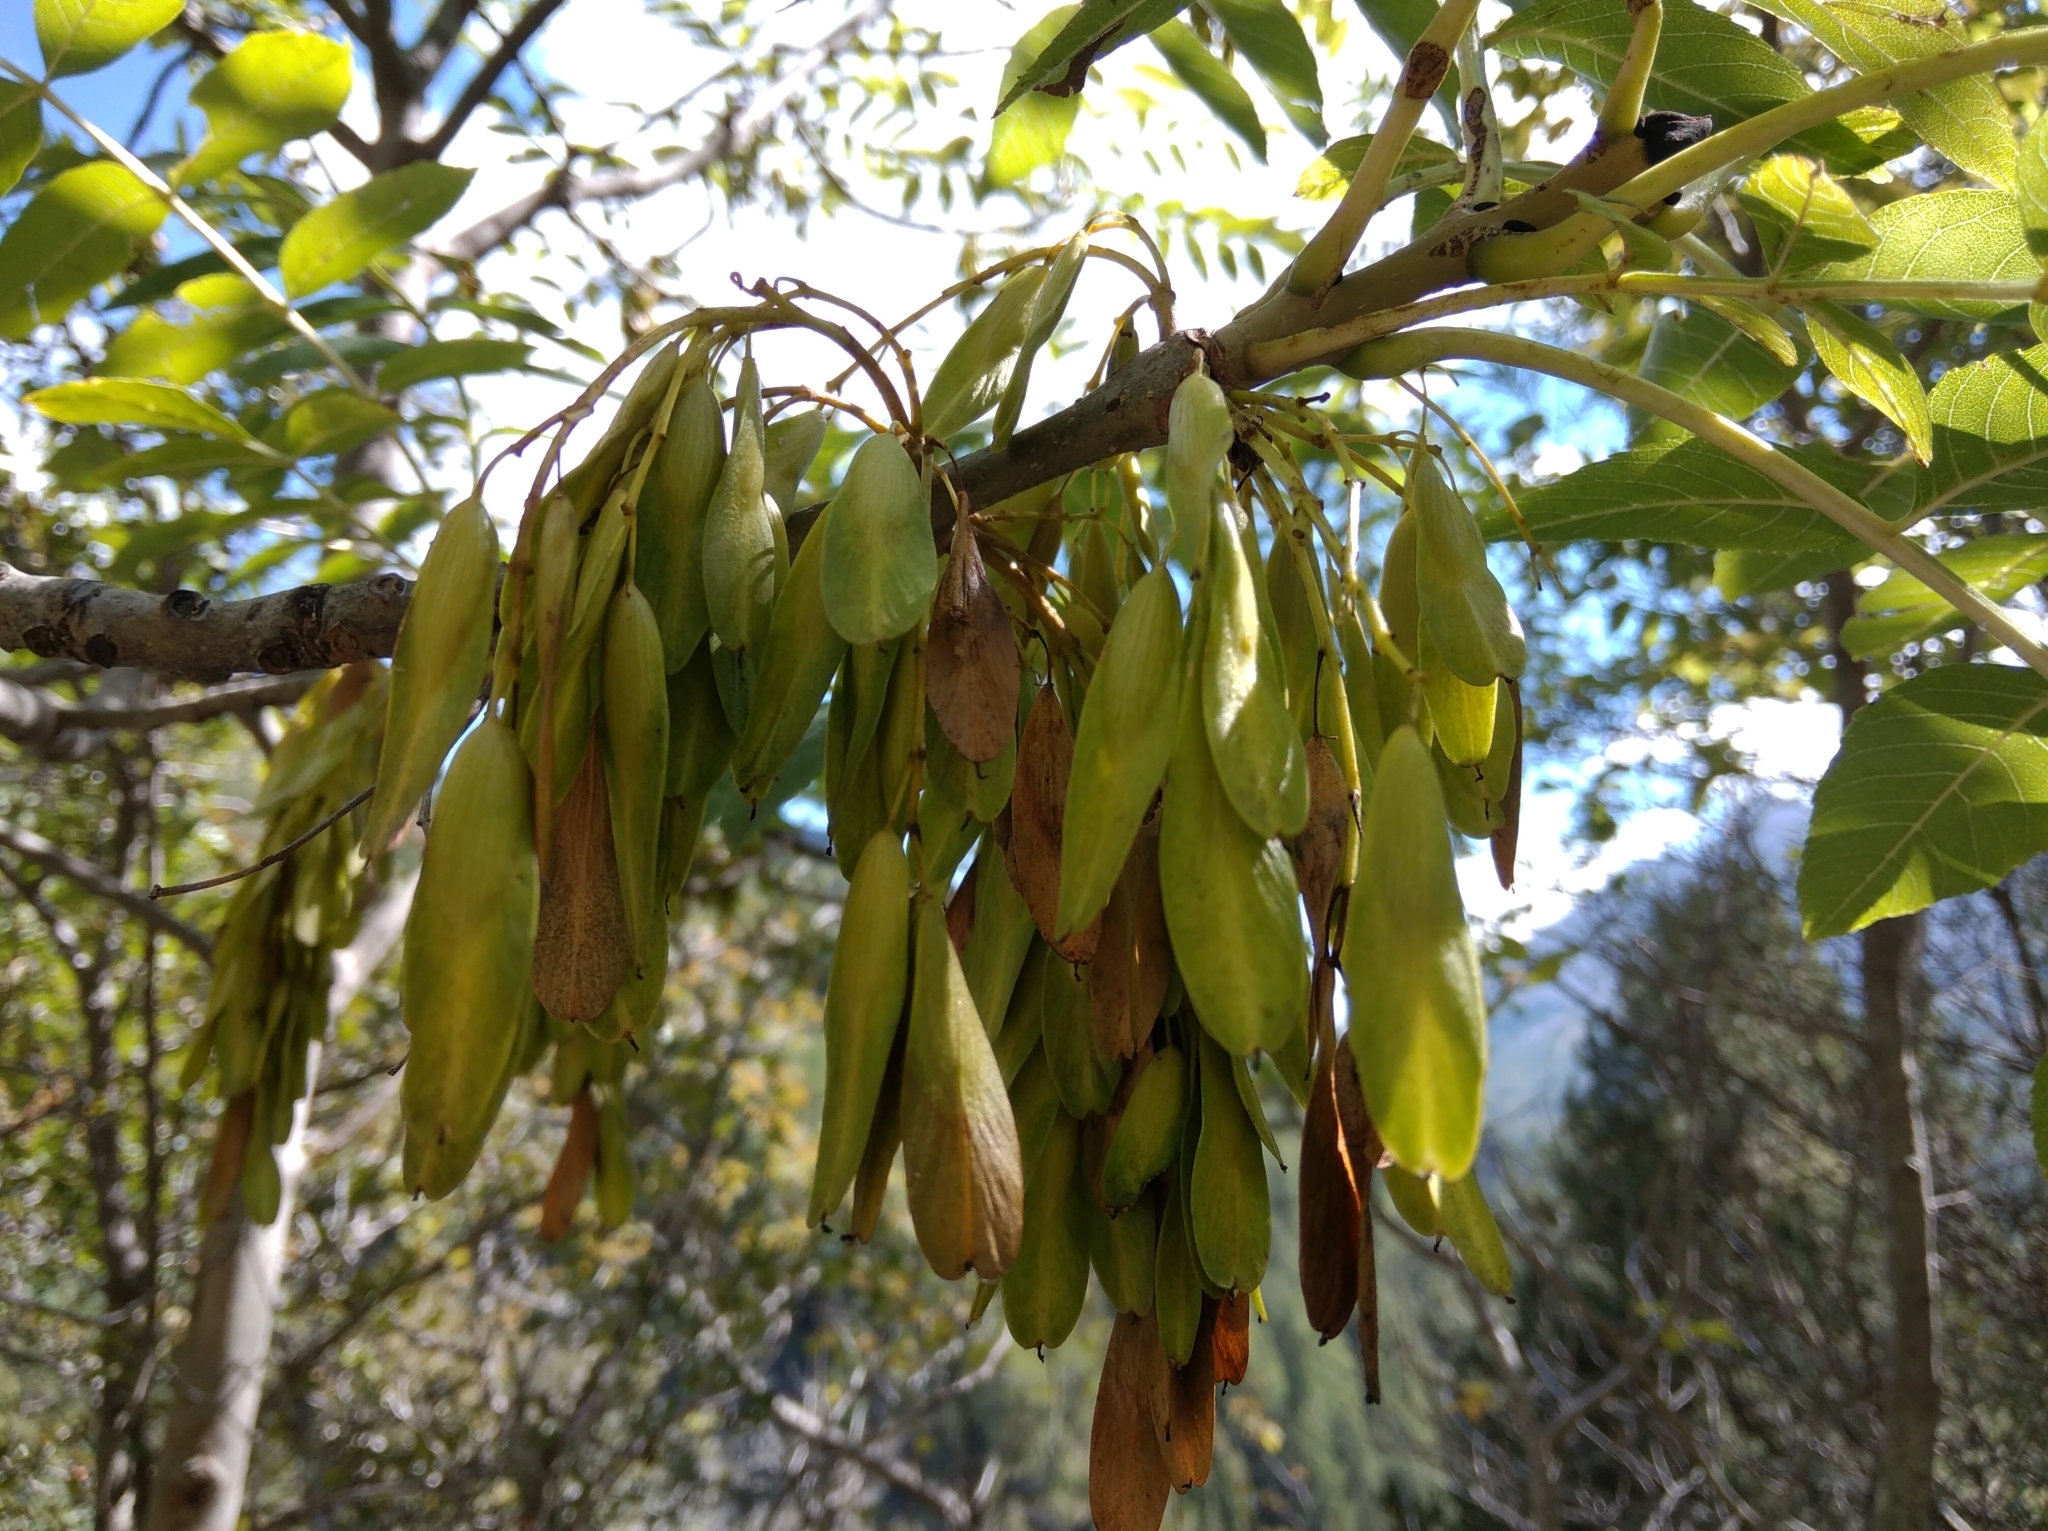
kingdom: Plantae
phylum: Tracheophyta
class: Magnoliopsida
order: Lamiales
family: Oleaceae
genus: Fraxinus
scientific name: Fraxinus excelsior
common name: European ash
